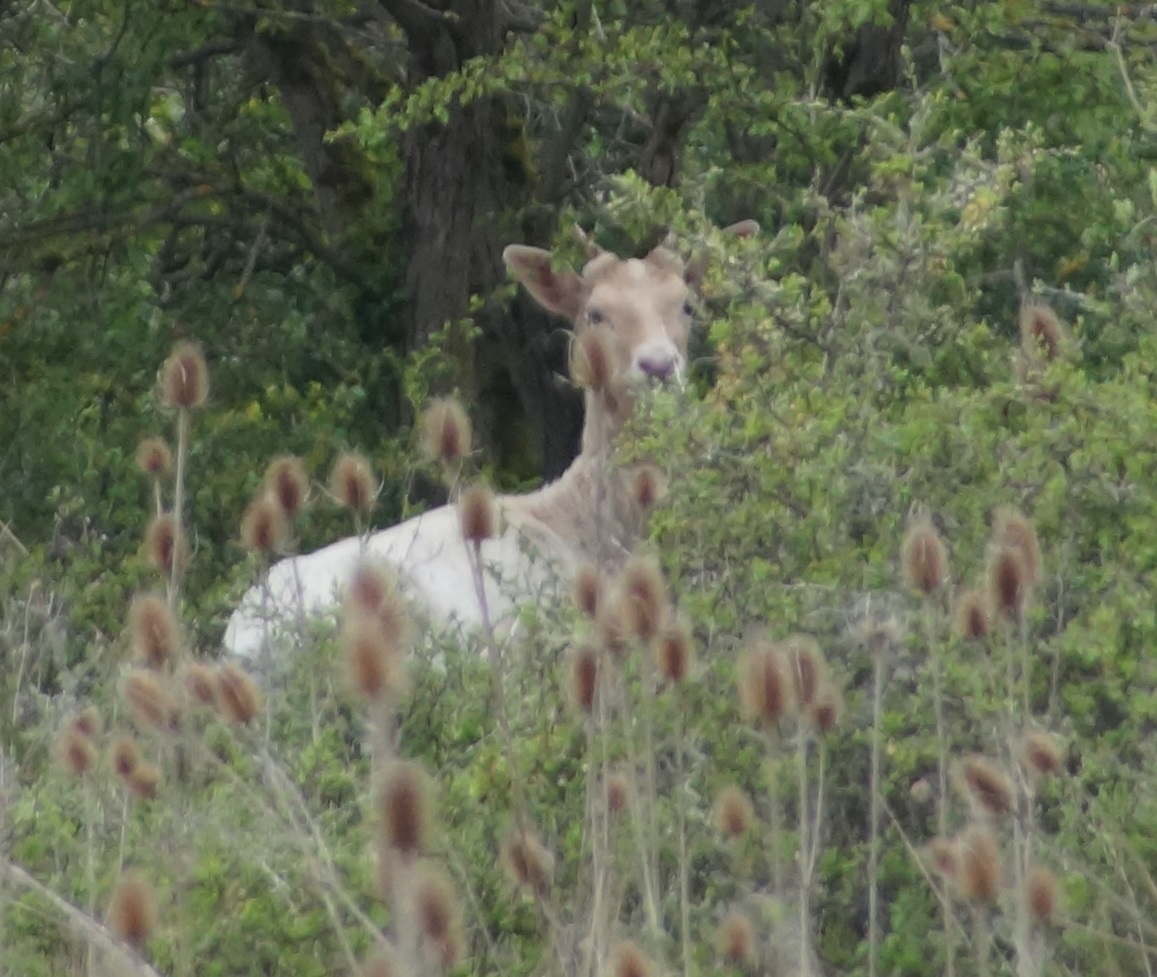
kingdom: Animalia
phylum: Chordata
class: Mammalia
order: Artiodactyla
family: Cervidae
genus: Dama
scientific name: Dama dama
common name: Fallow deer
